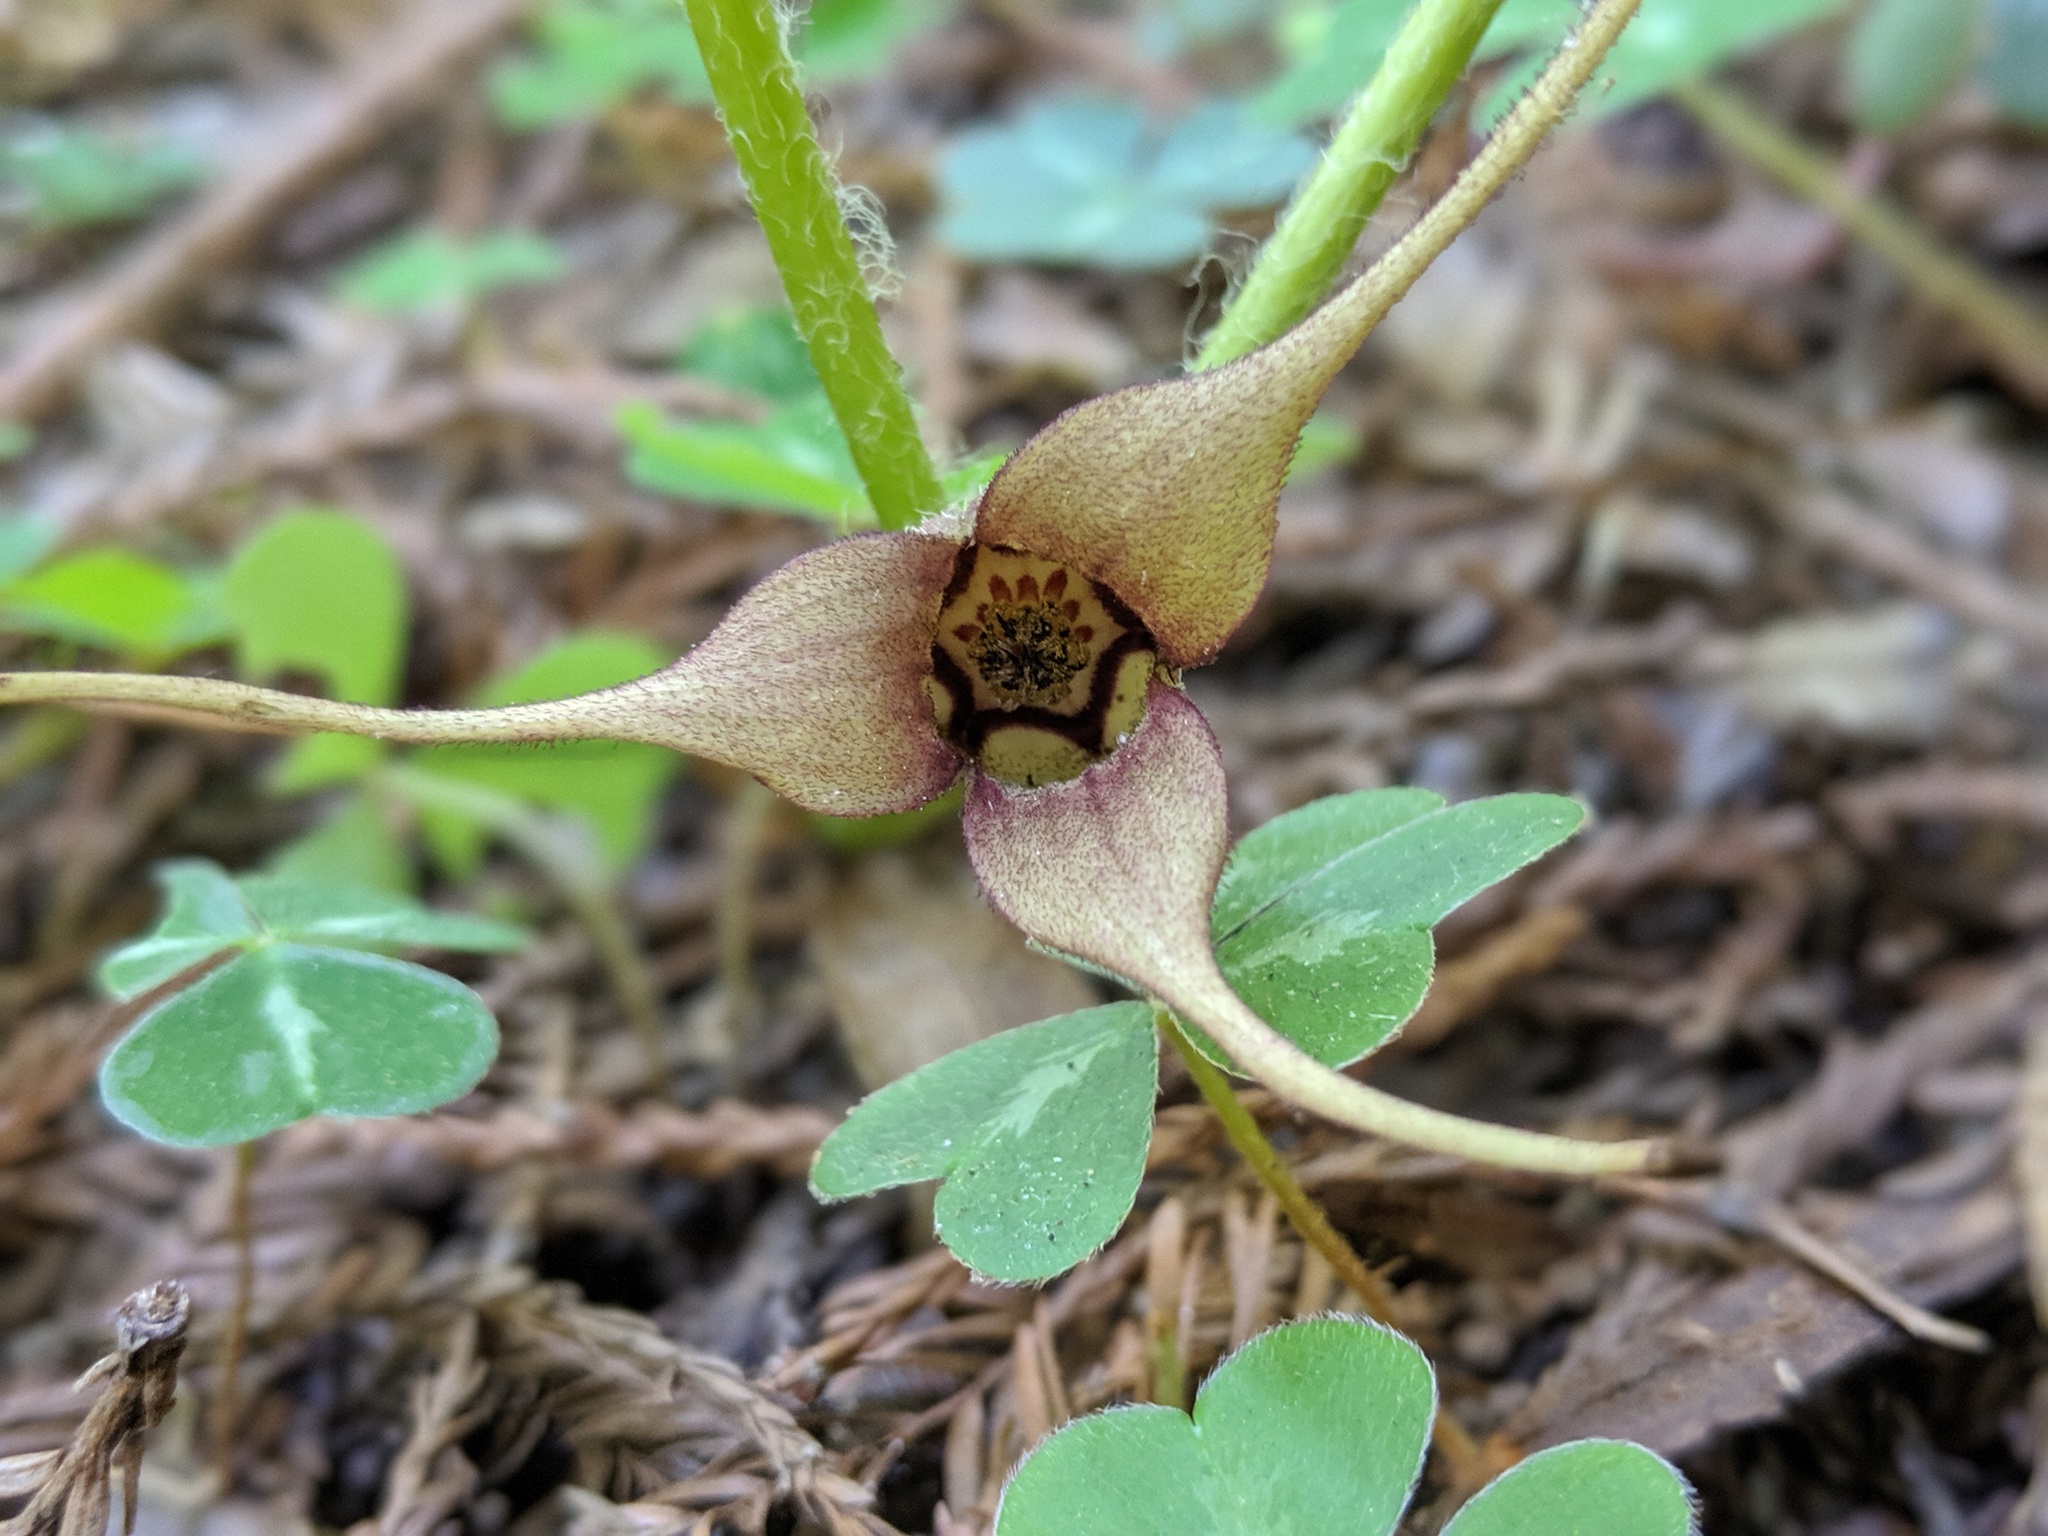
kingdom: Plantae
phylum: Tracheophyta
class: Magnoliopsida
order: Piperales
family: Aristolochiaceae
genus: Asarum
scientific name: Asarum caudatum
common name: Wild ginger
